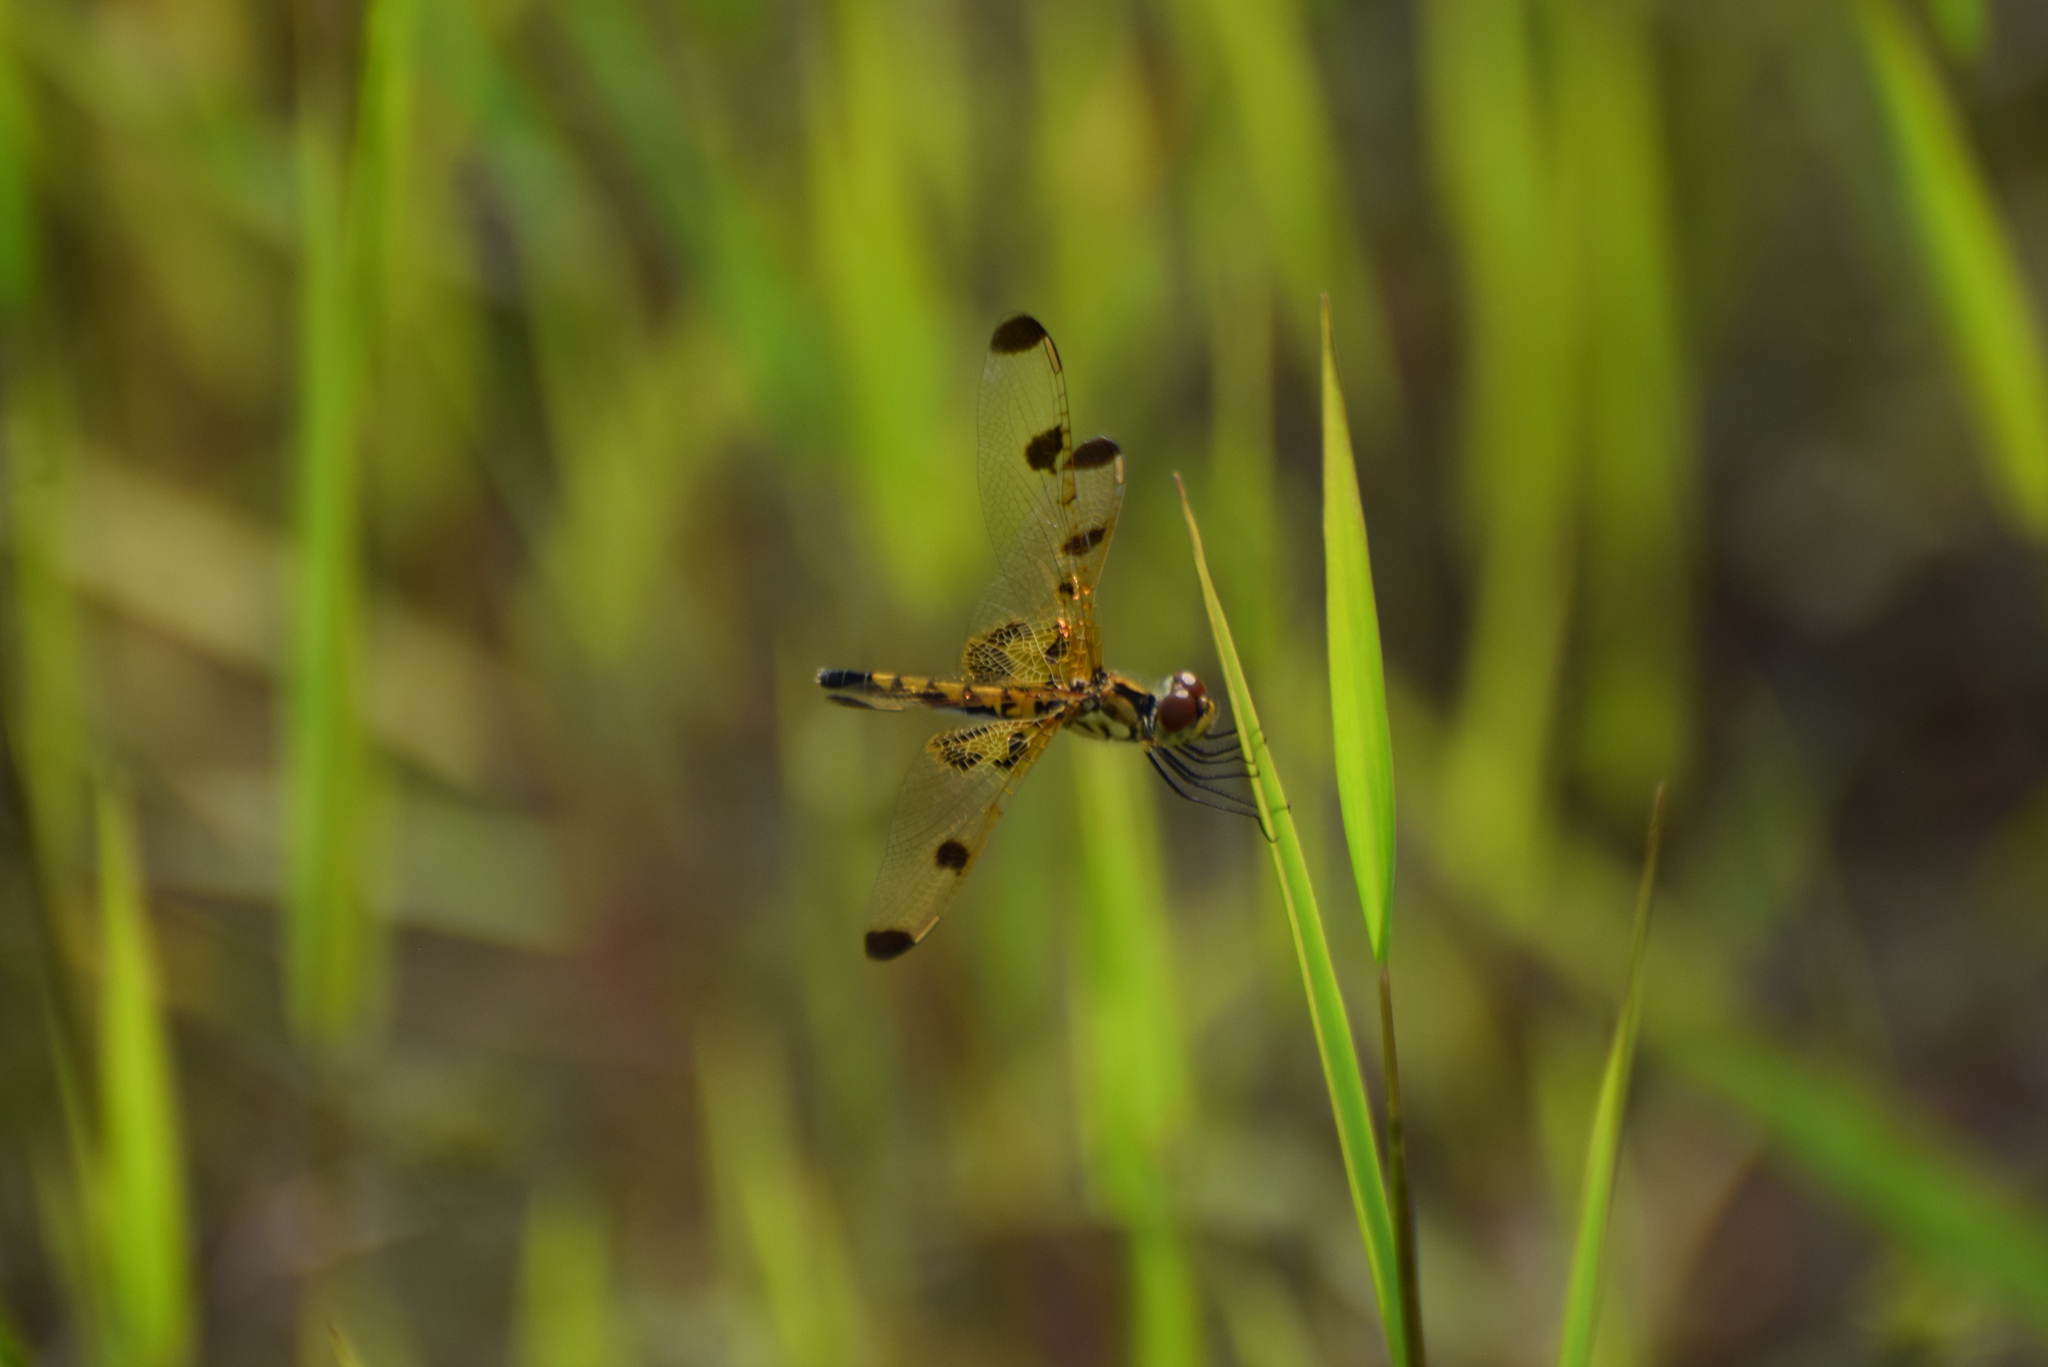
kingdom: Animalia
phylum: Arthropoda
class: Insecta
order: Odonata
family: Libellulidae
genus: Celithemis
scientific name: Celithemis elisa
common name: Calico pennant
